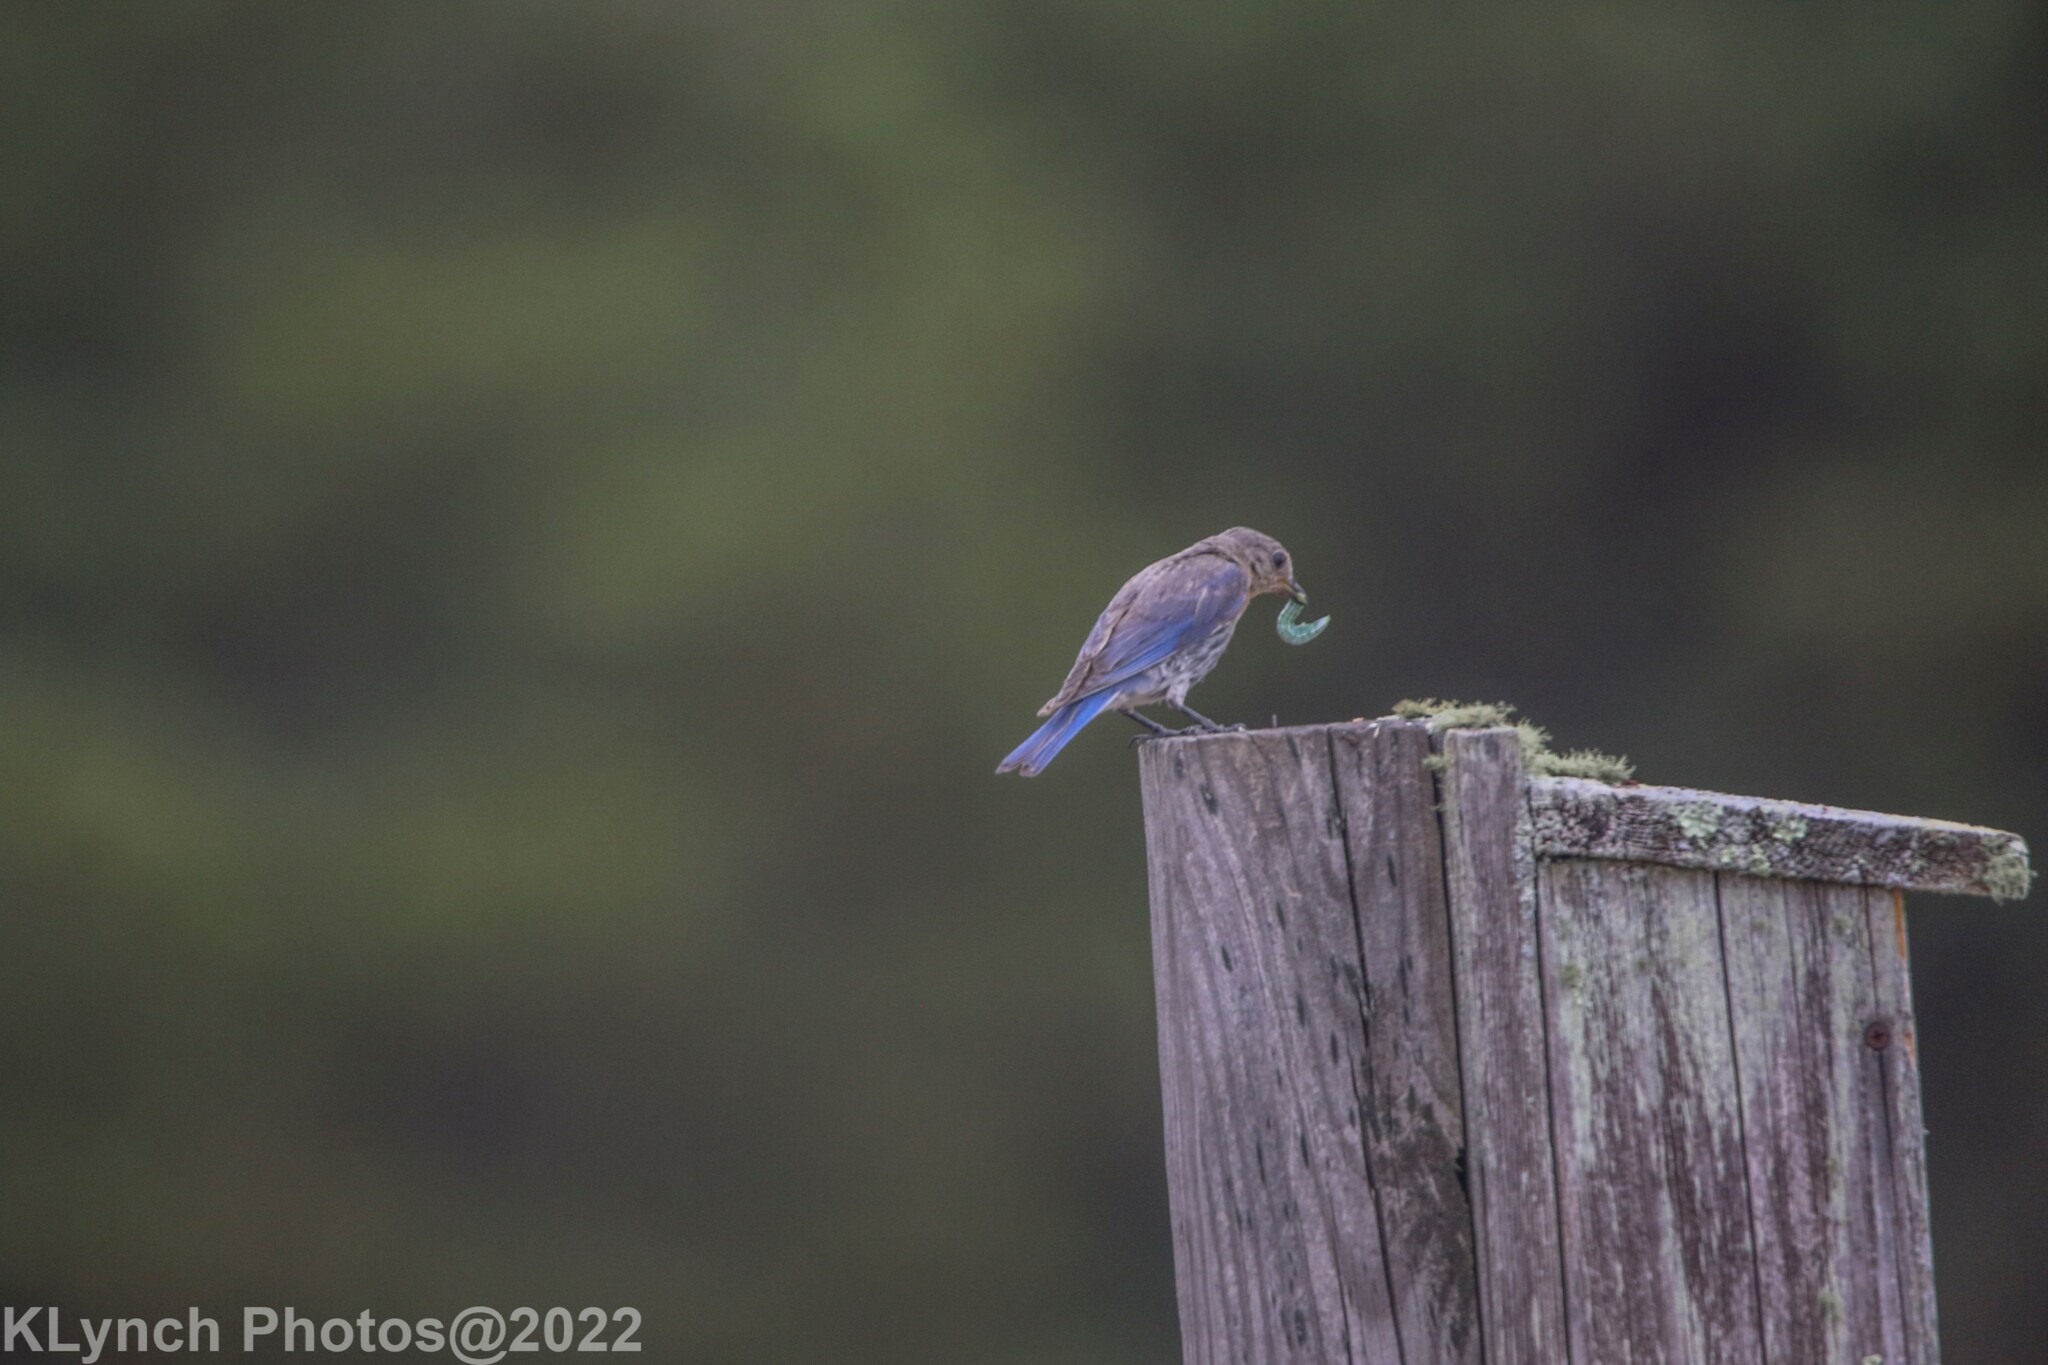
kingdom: Animalia
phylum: Chordata
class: Aves
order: Passeriformes
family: Turdidae
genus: Sialia
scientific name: Sialia sialis
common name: Eastern bluebird
